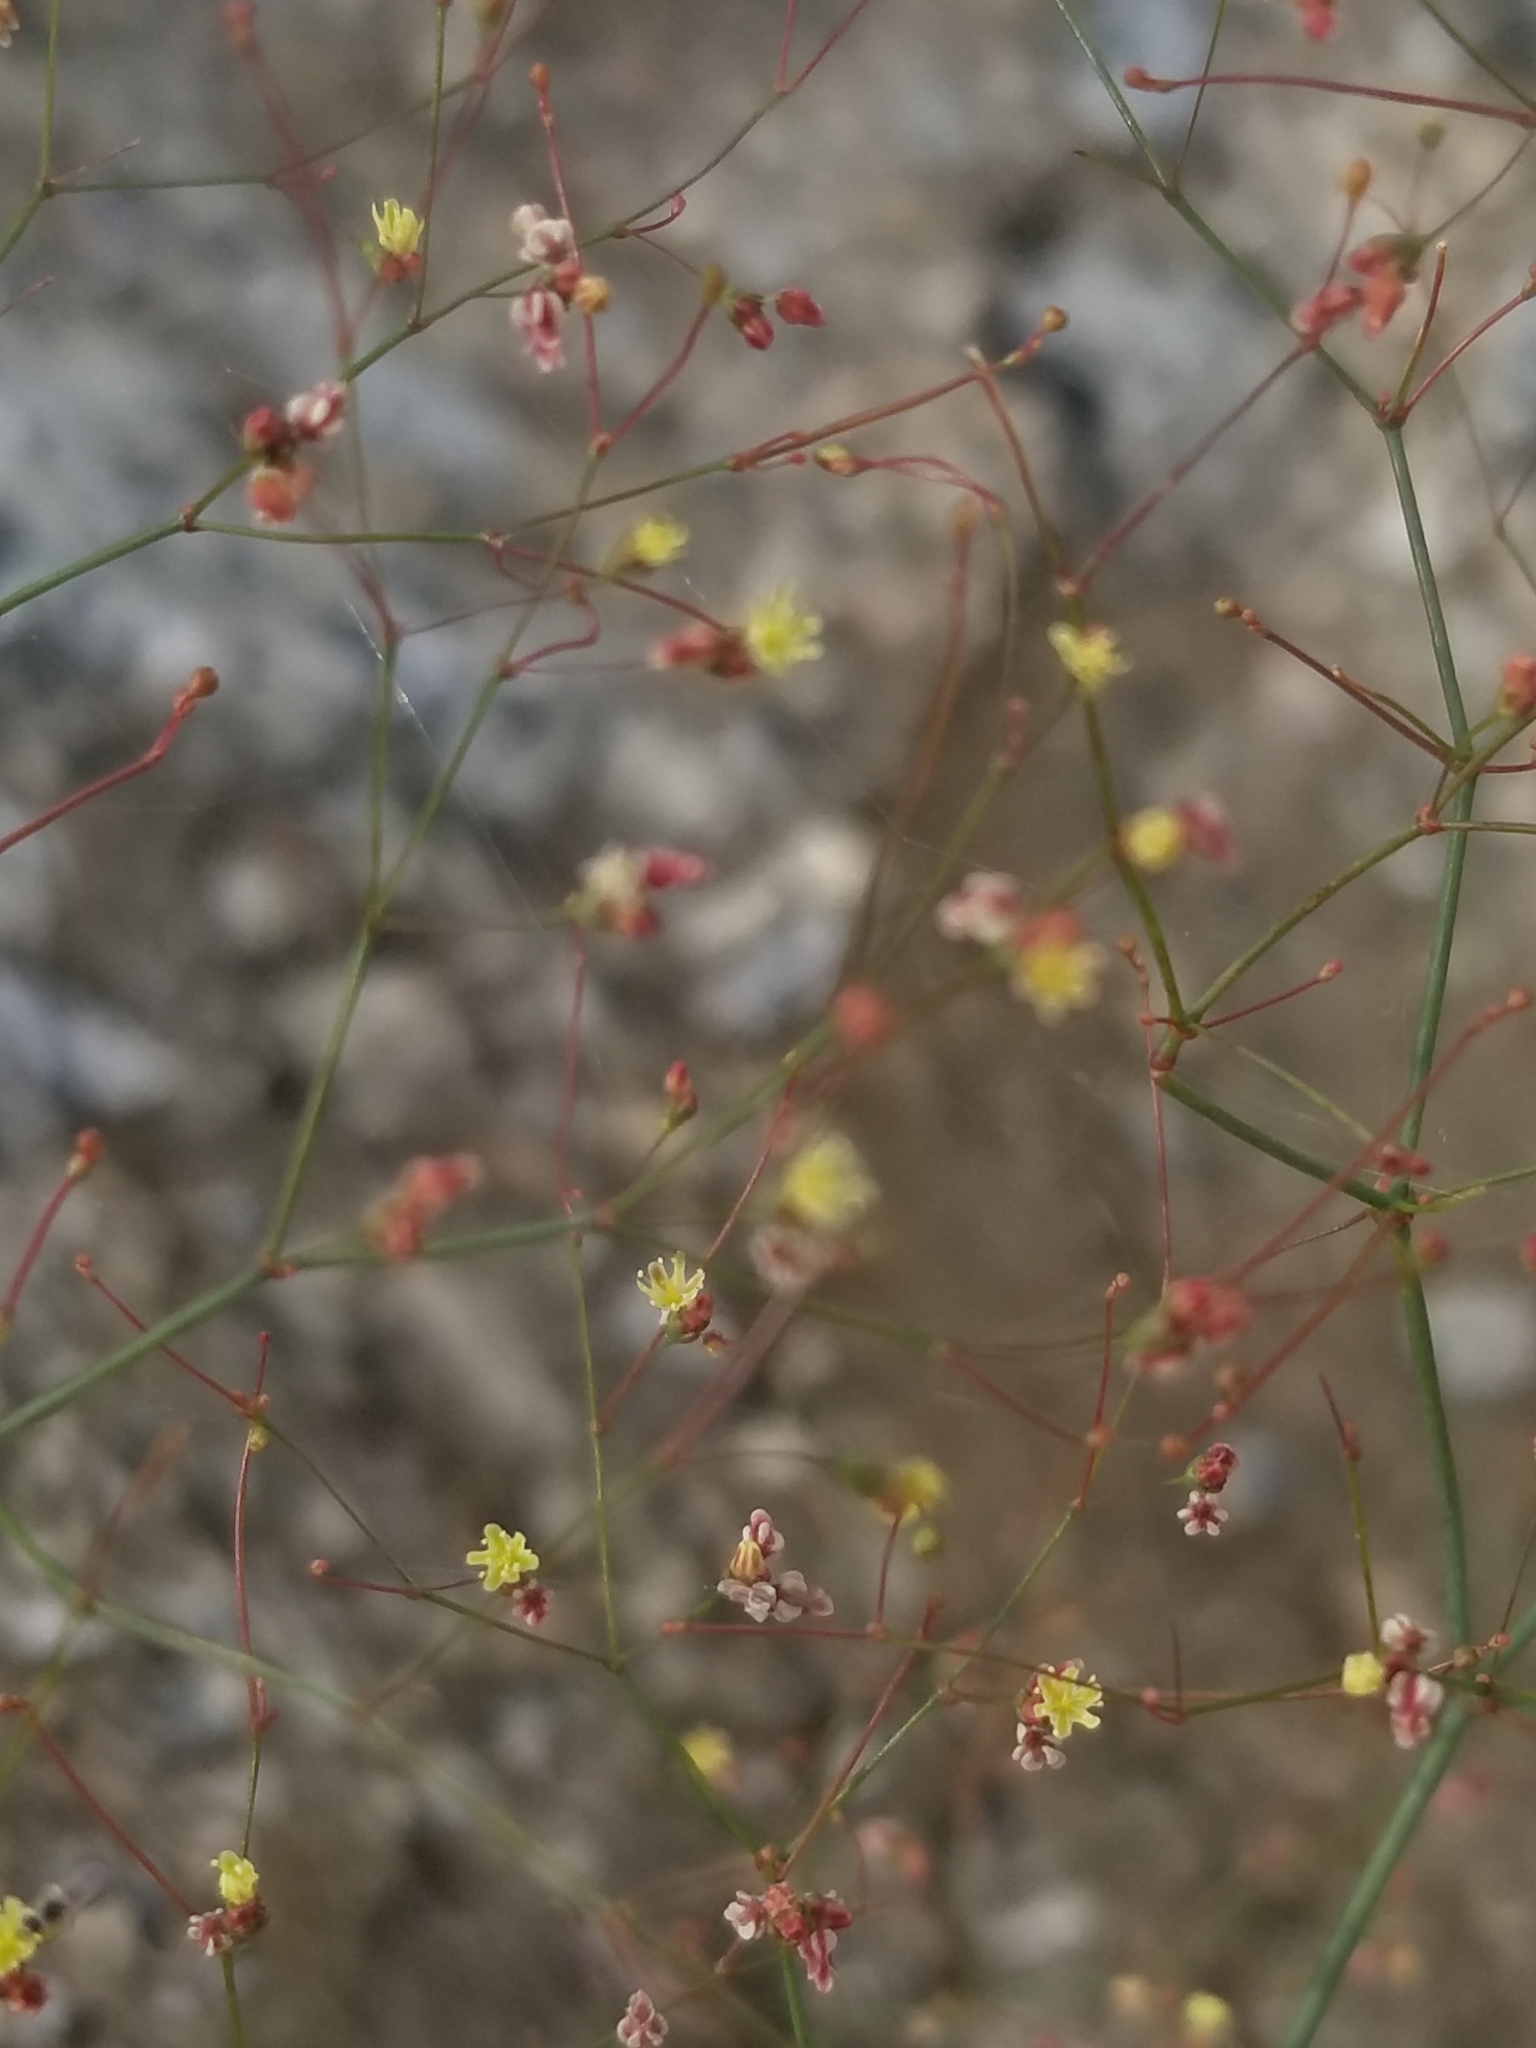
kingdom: Plantae
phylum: Tracheophyta
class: Magnoliopsida
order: Caryophyllales
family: Polygonaceae
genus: Eriogonum
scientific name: Eriogonum thomasii
